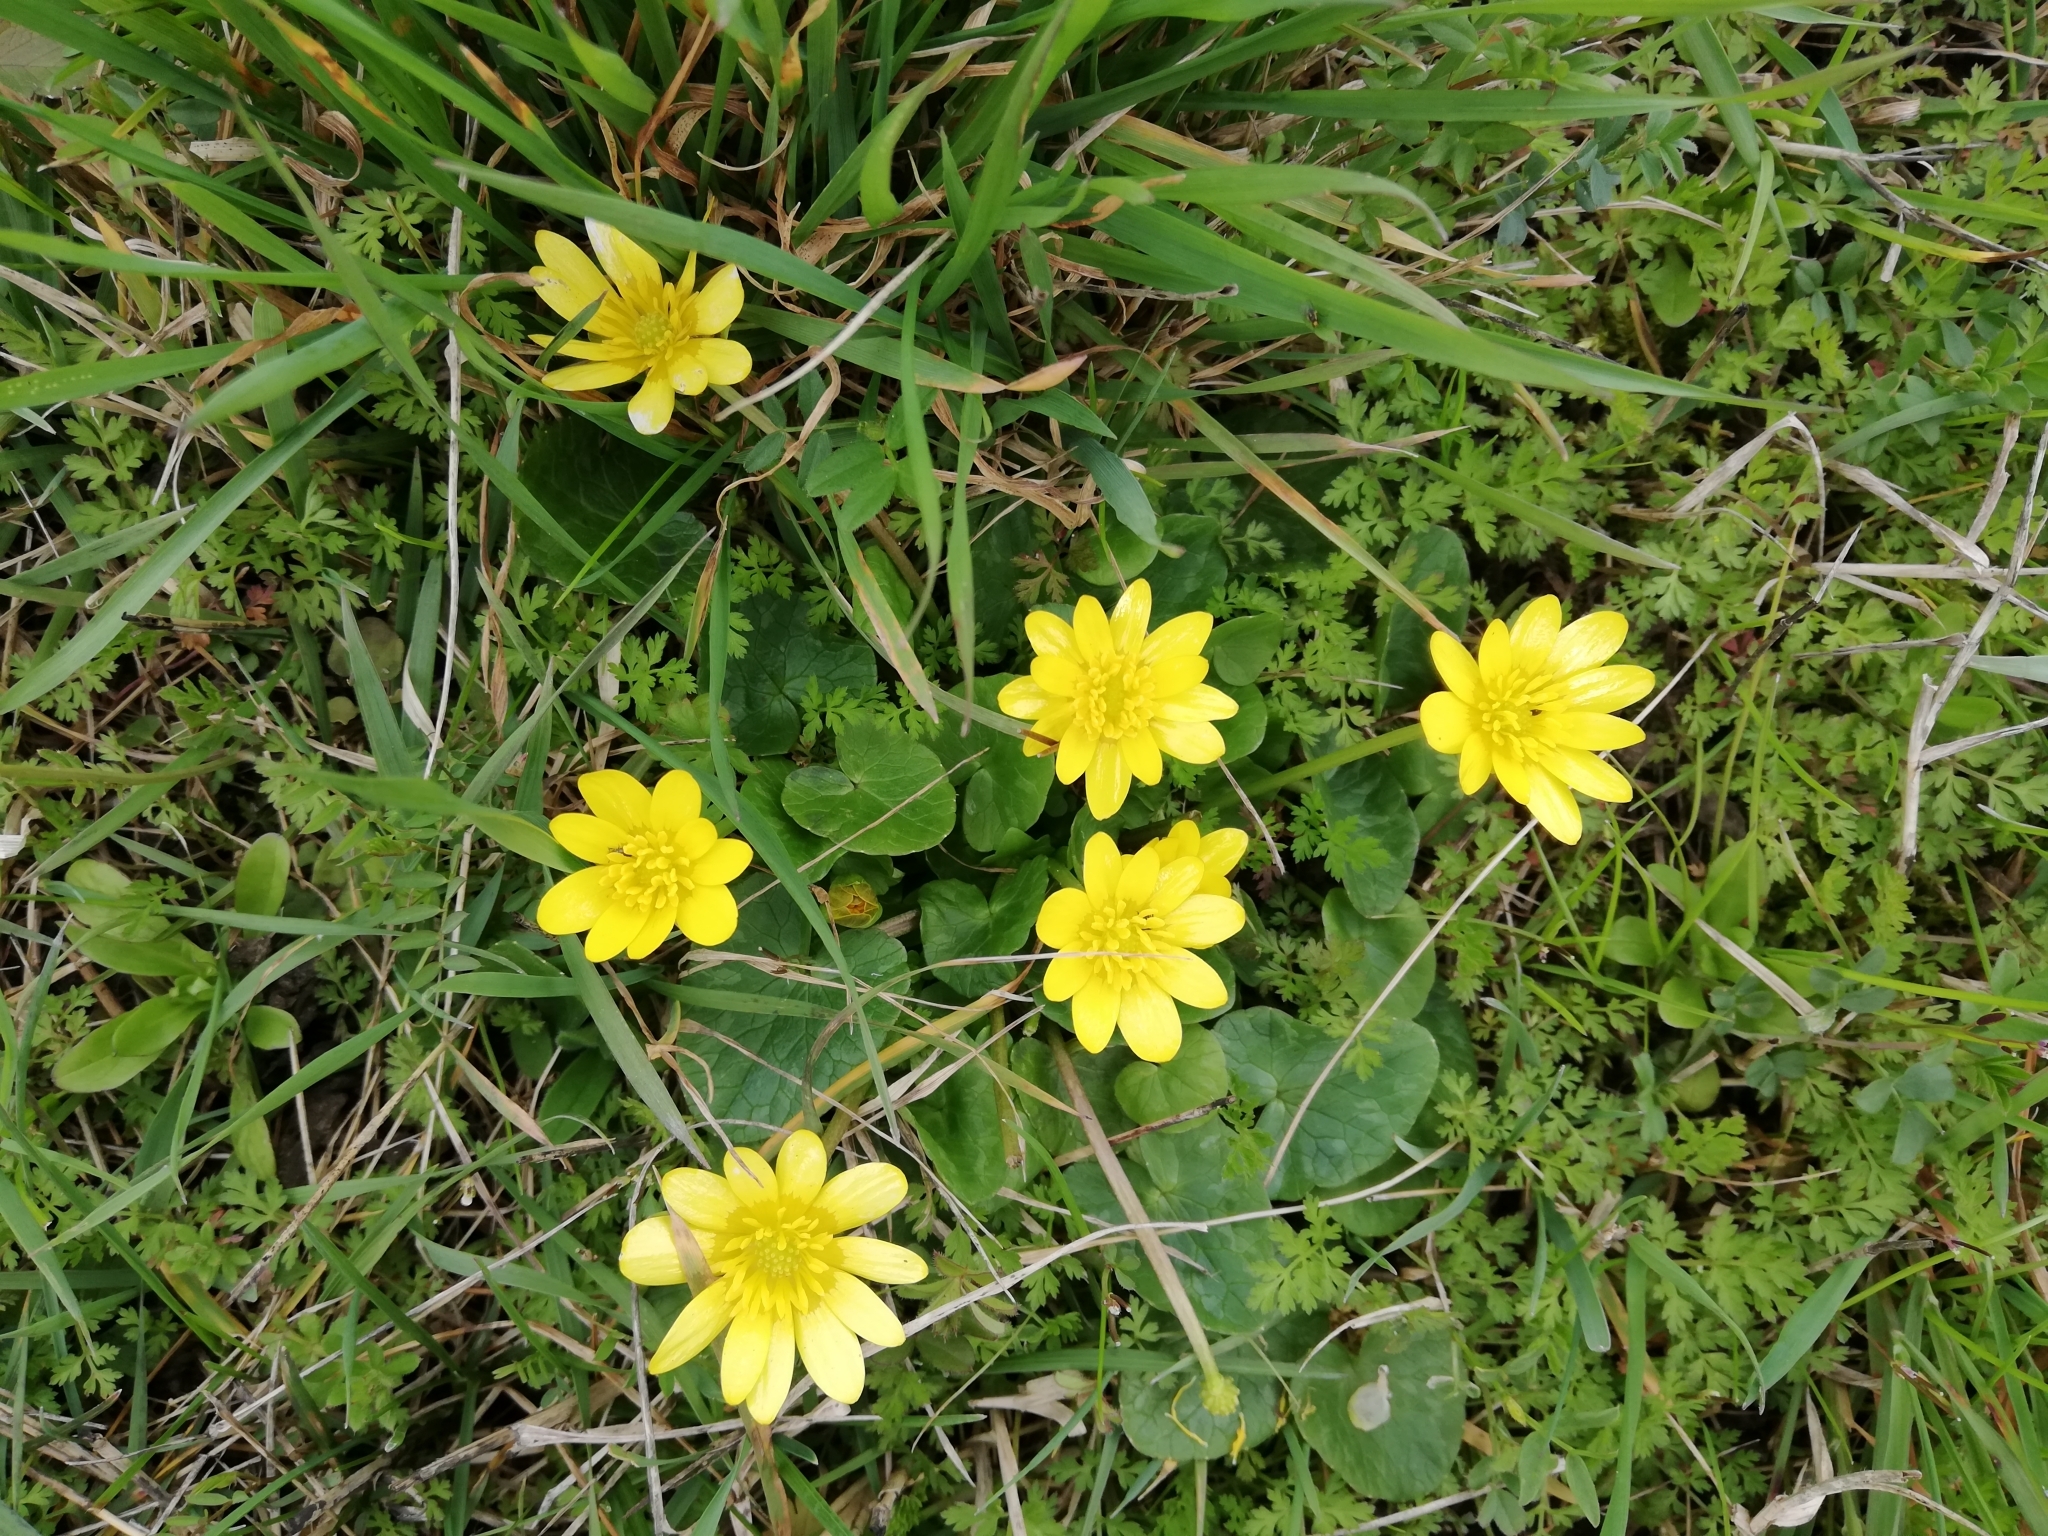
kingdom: Plantae
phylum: Tracheophyta
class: Magnoliopsida
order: Ranunculales
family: Ranunculaceae
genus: Ficaria
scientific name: Ficaria verna
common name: Lesser celandine
